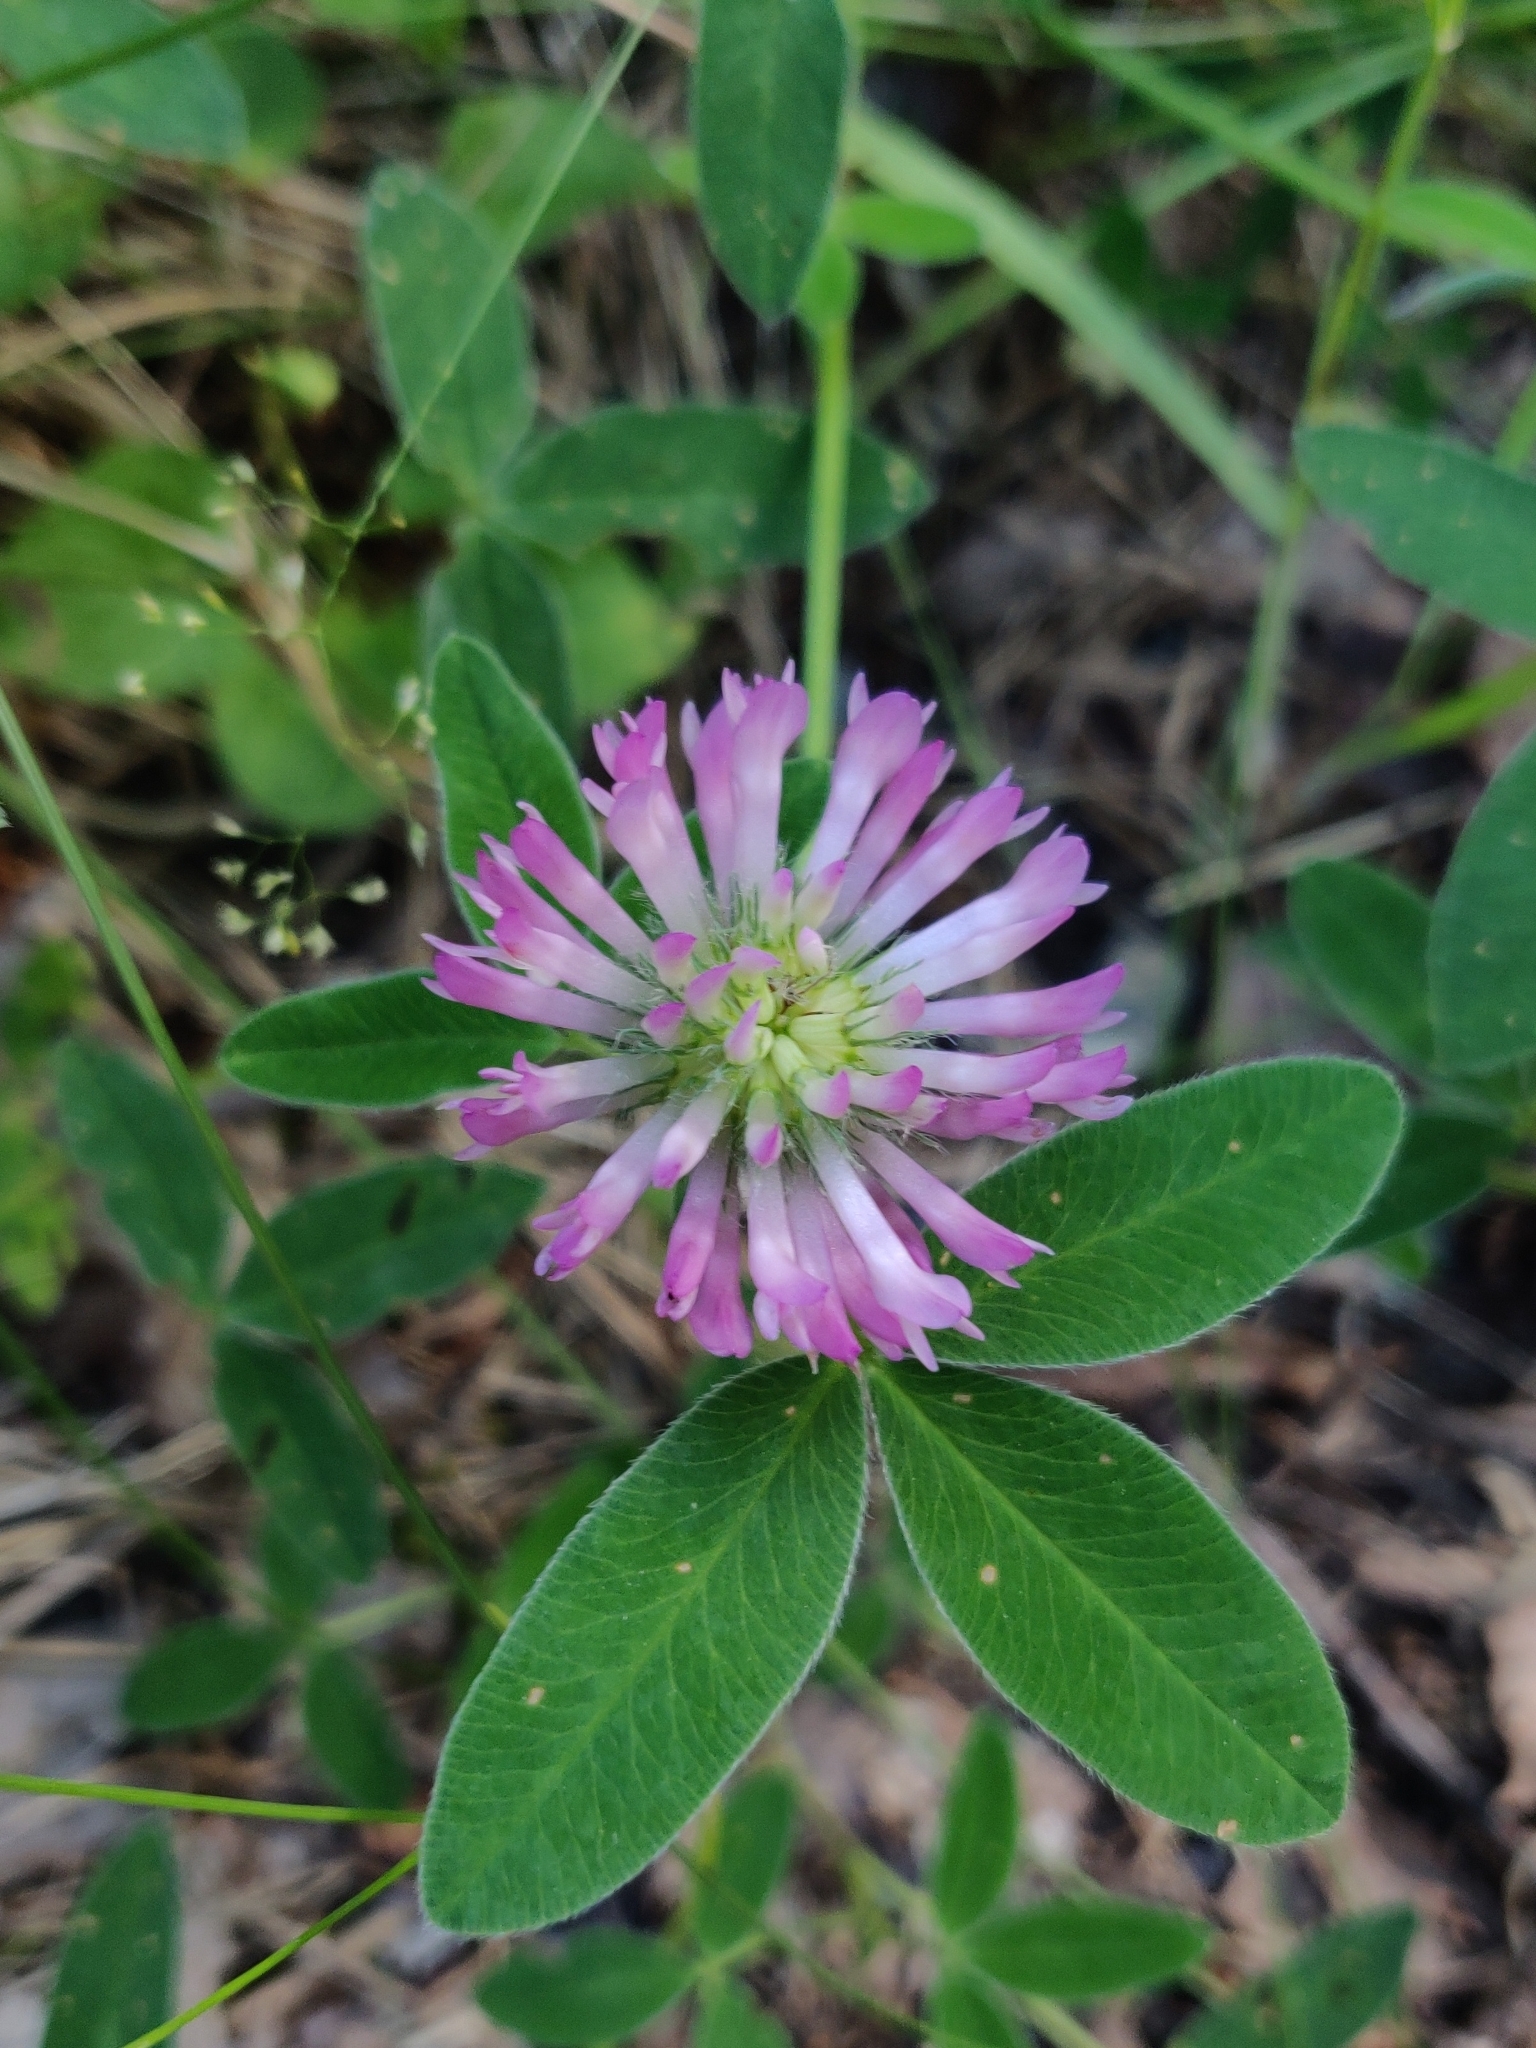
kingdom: Plantae
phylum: Tracheophyta
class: Magnoliopsida
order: Fabales
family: Fabaceae
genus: Trifolium
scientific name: Trifolium medium
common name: Zigzag clover
